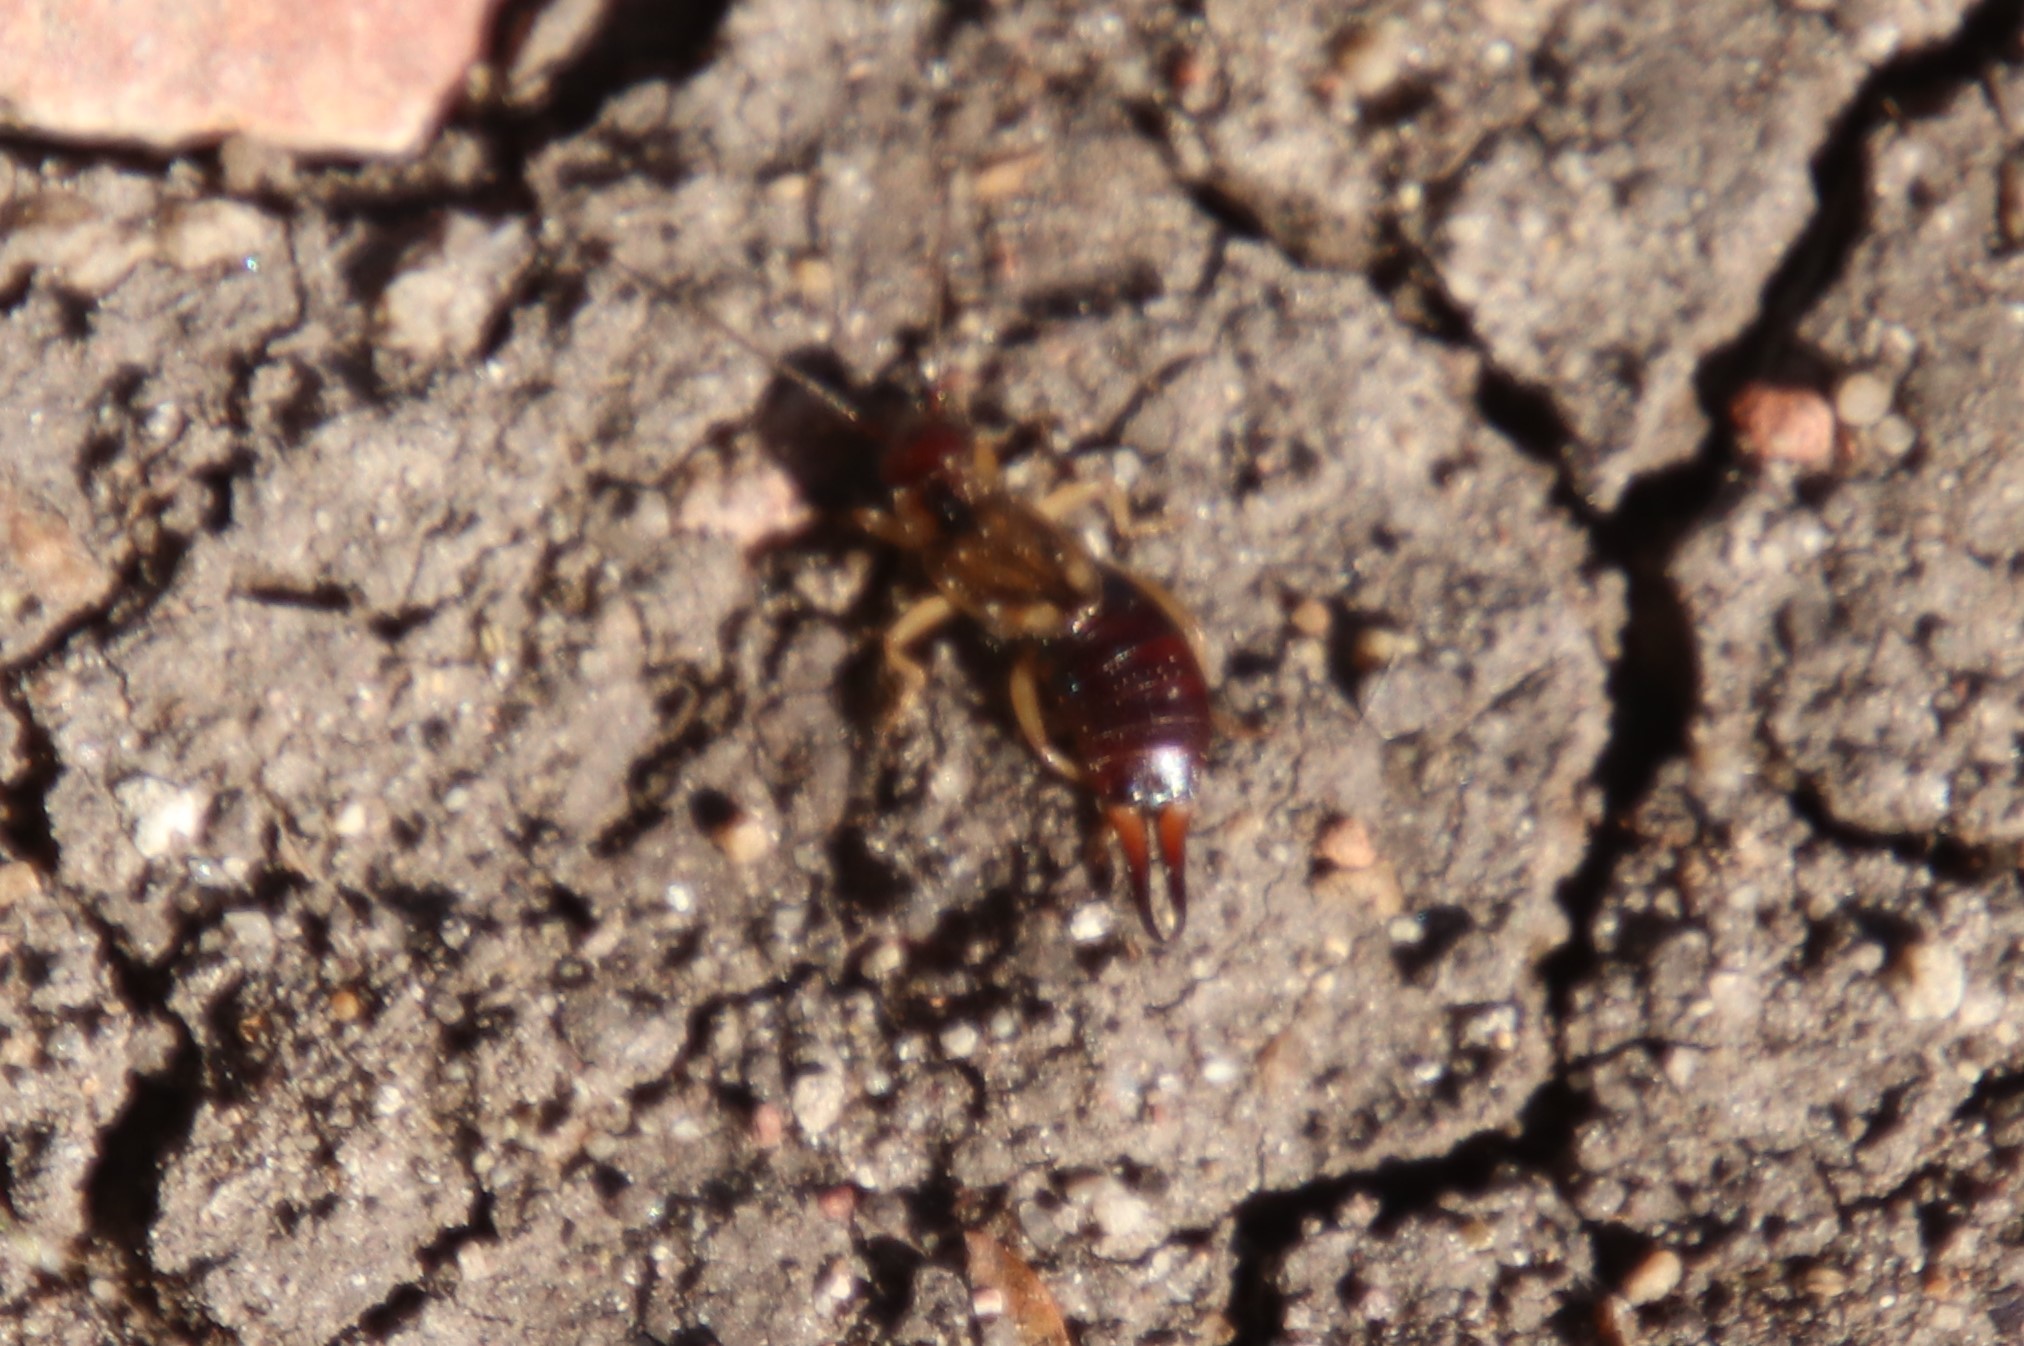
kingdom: Animalia
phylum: Arthropoda
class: Insecta
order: Dermaptera
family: Forficulidae
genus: Forficula
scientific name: Forficula
